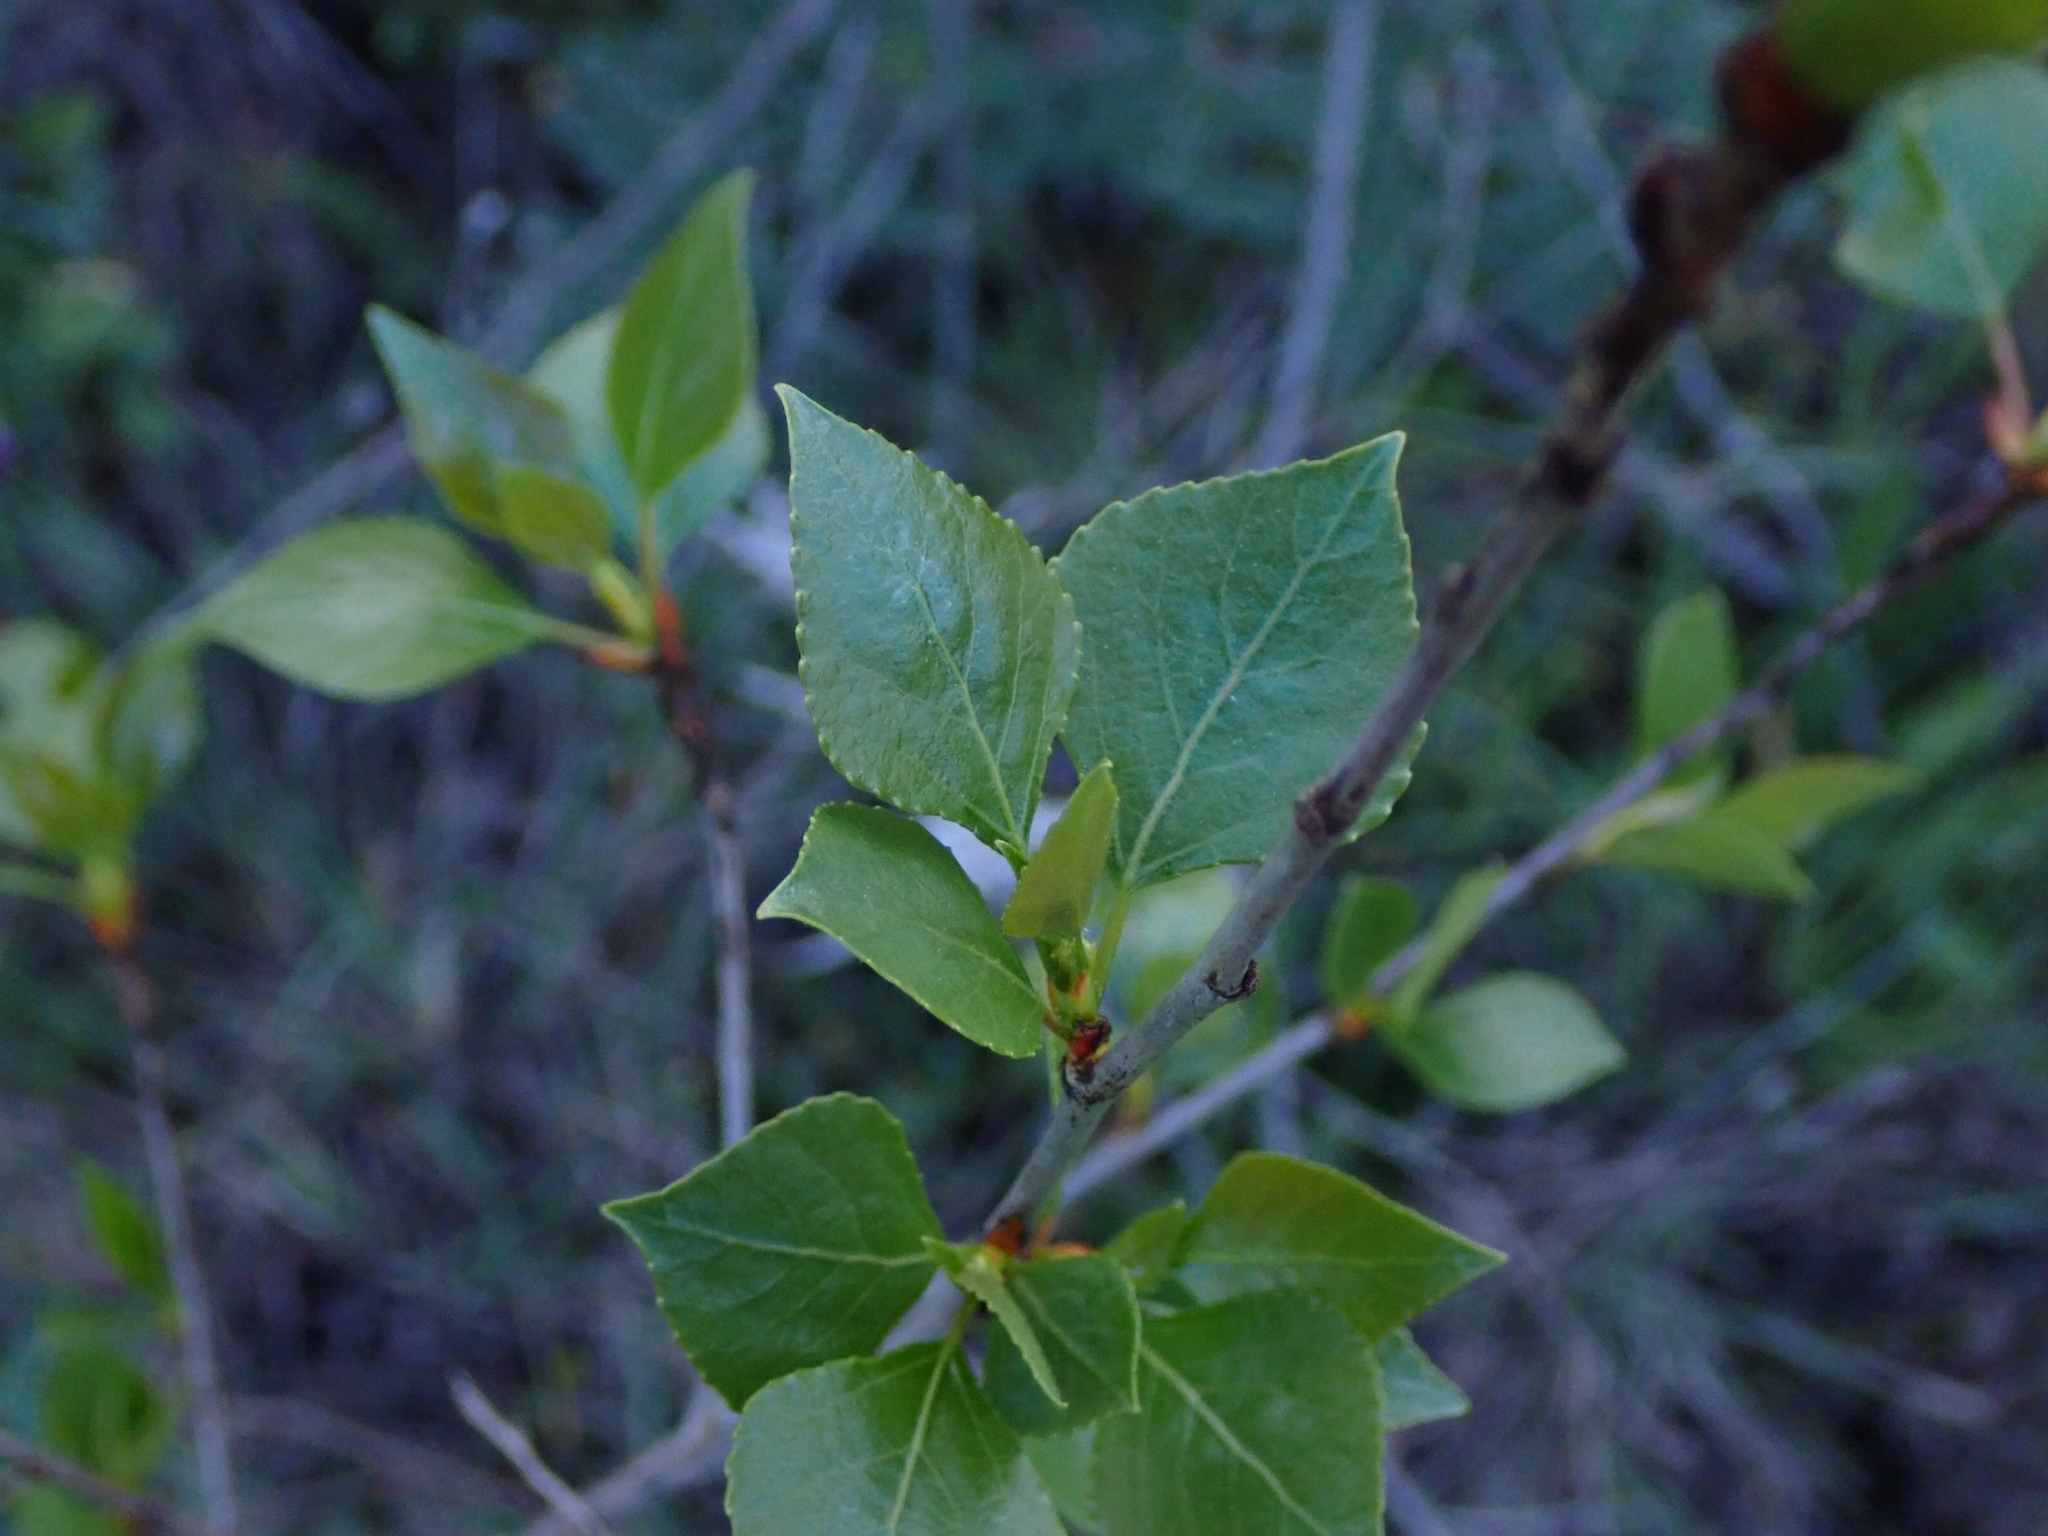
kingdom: Plantae
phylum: Tracheophyta
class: Magnoliopsida
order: Malpighiales
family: Salicaceae
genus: Populus
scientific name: Populus nigra
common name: Black poplar
